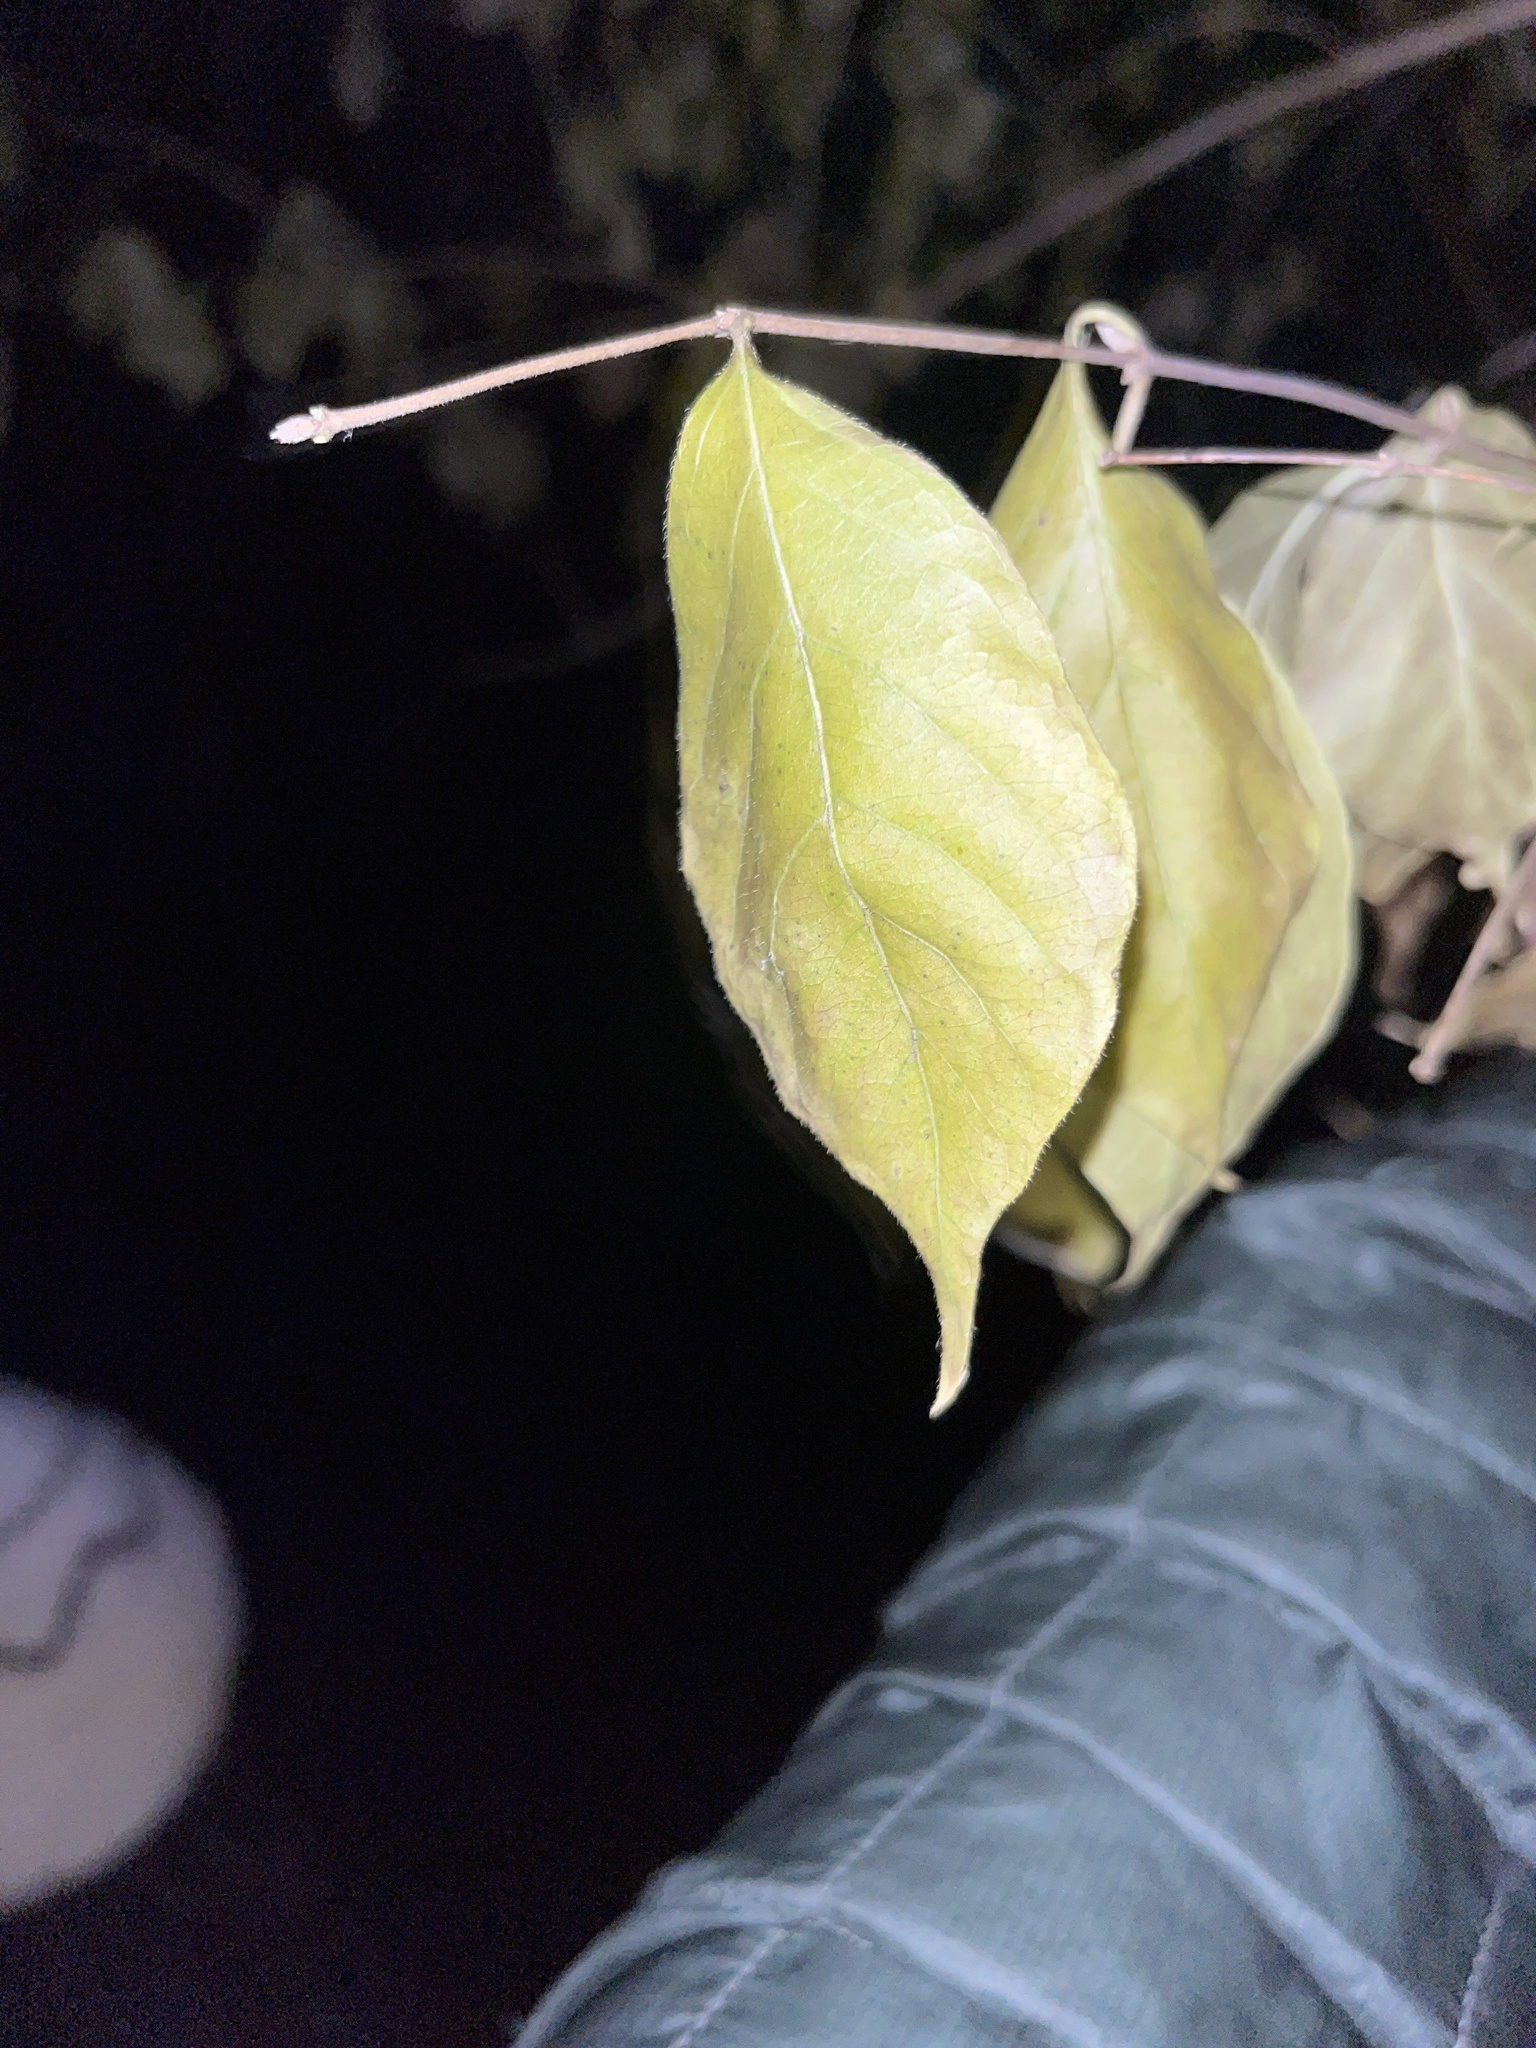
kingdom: Plantae
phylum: Tracheophyta
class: Magnoliopsida
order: Dipsacales
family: Caprifoliaceae
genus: Lonicera
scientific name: Lonicera maackii
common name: Amur honeysuckle
